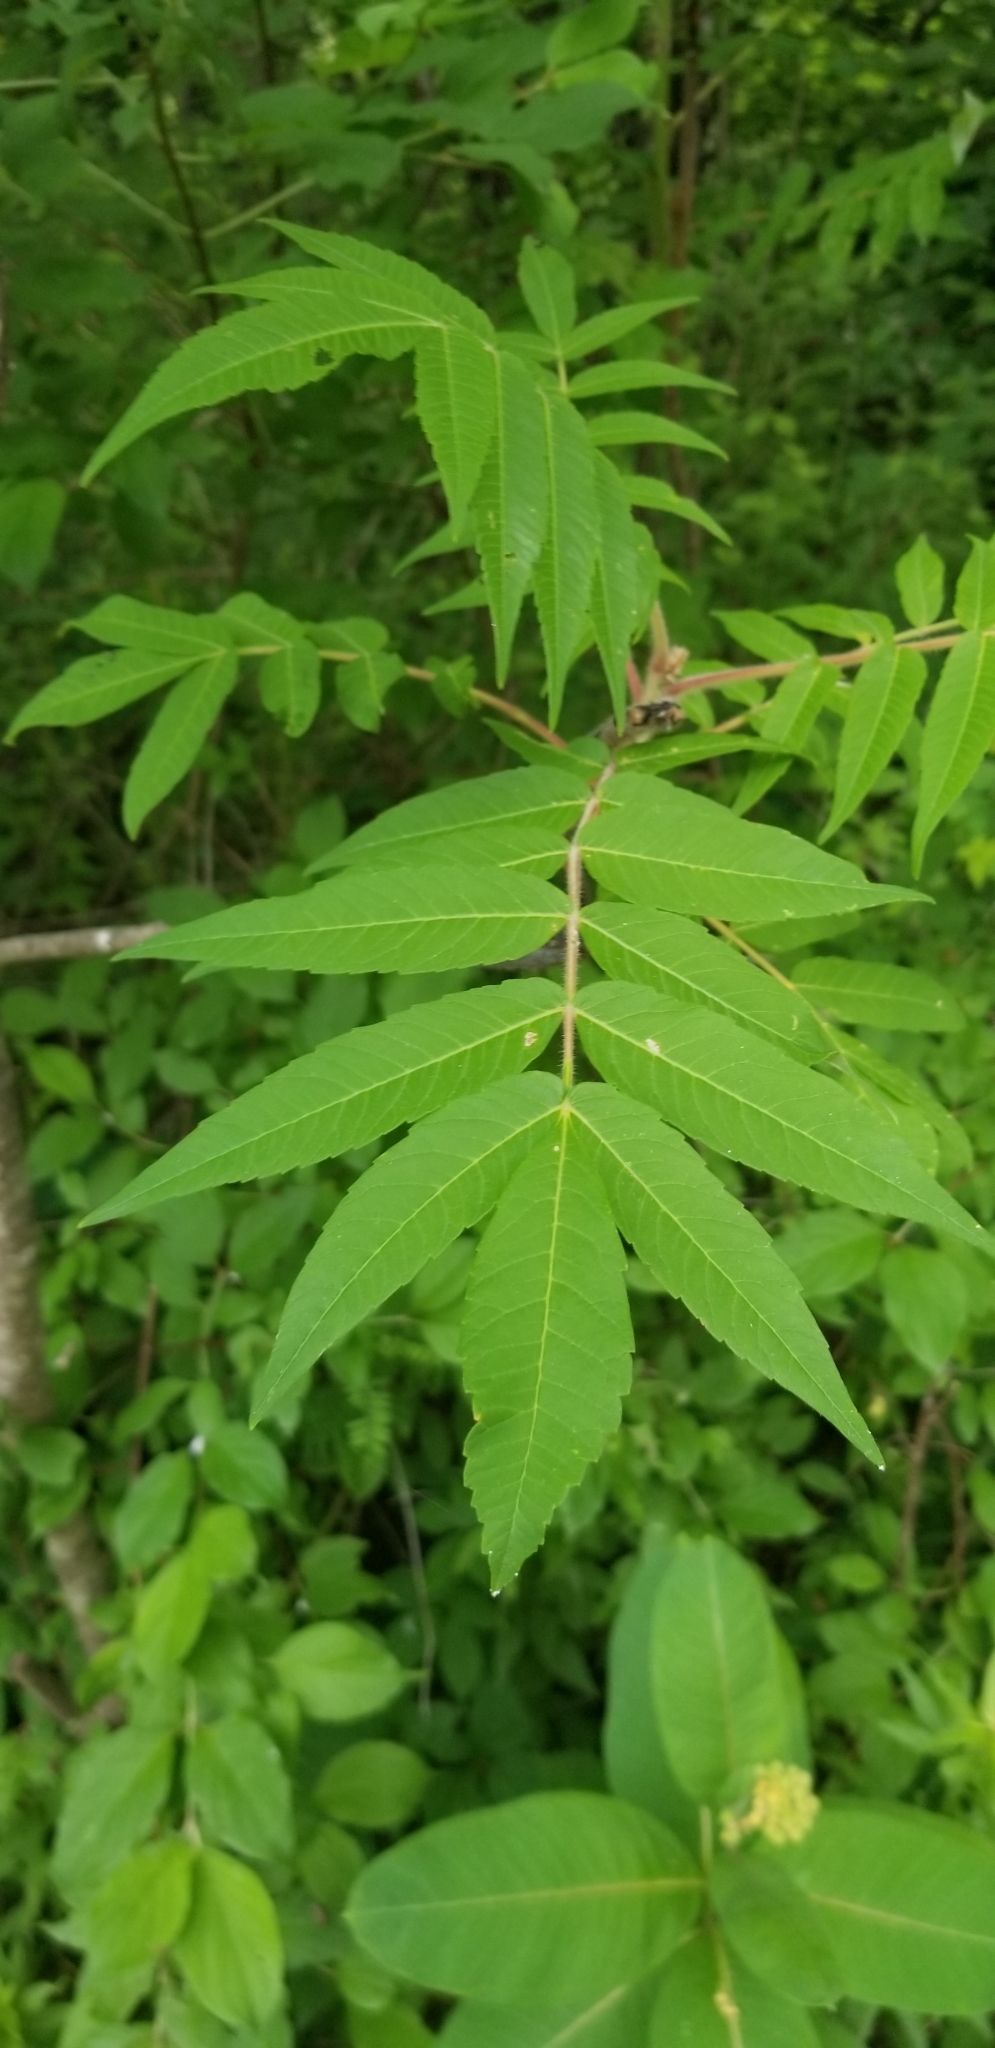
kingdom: Plantae
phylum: Tracheophyta
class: Magnoliopsida
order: Sapindales
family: Anacardiaceae
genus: Rhus
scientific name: Rhus typhina
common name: Staghorn sumac
